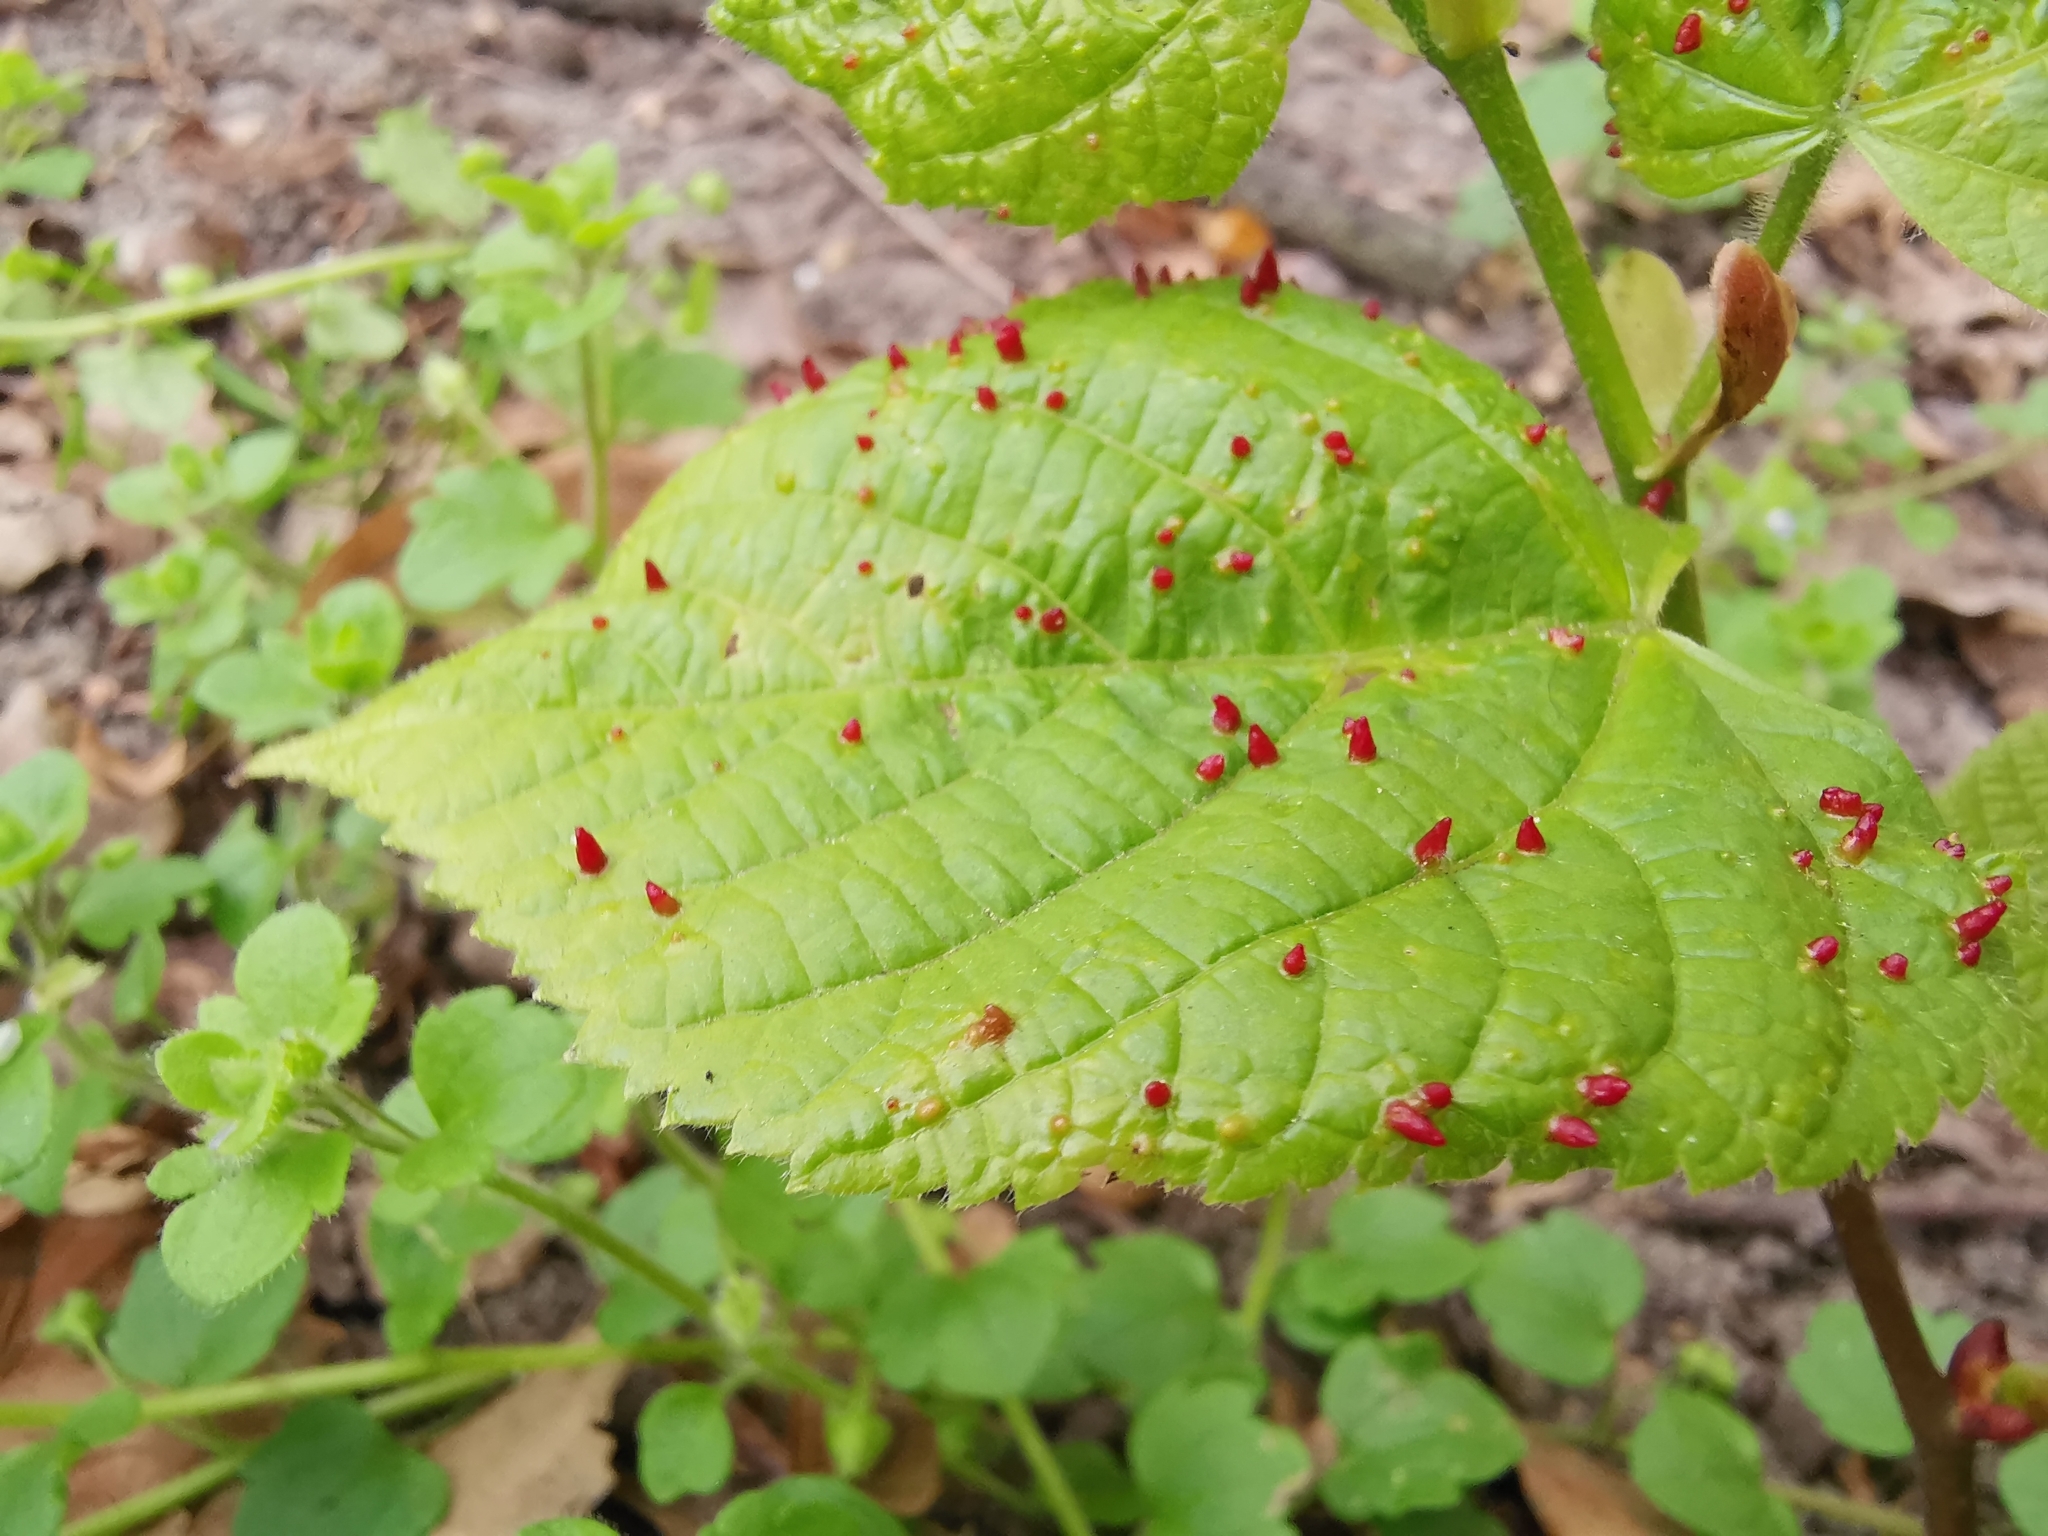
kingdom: Animalia
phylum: Arthropoda
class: Arachnida
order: Trombidiformes
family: Eriophyidae
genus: Eriophyes
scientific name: Eriophyes tiliae
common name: Red nail gall mite
